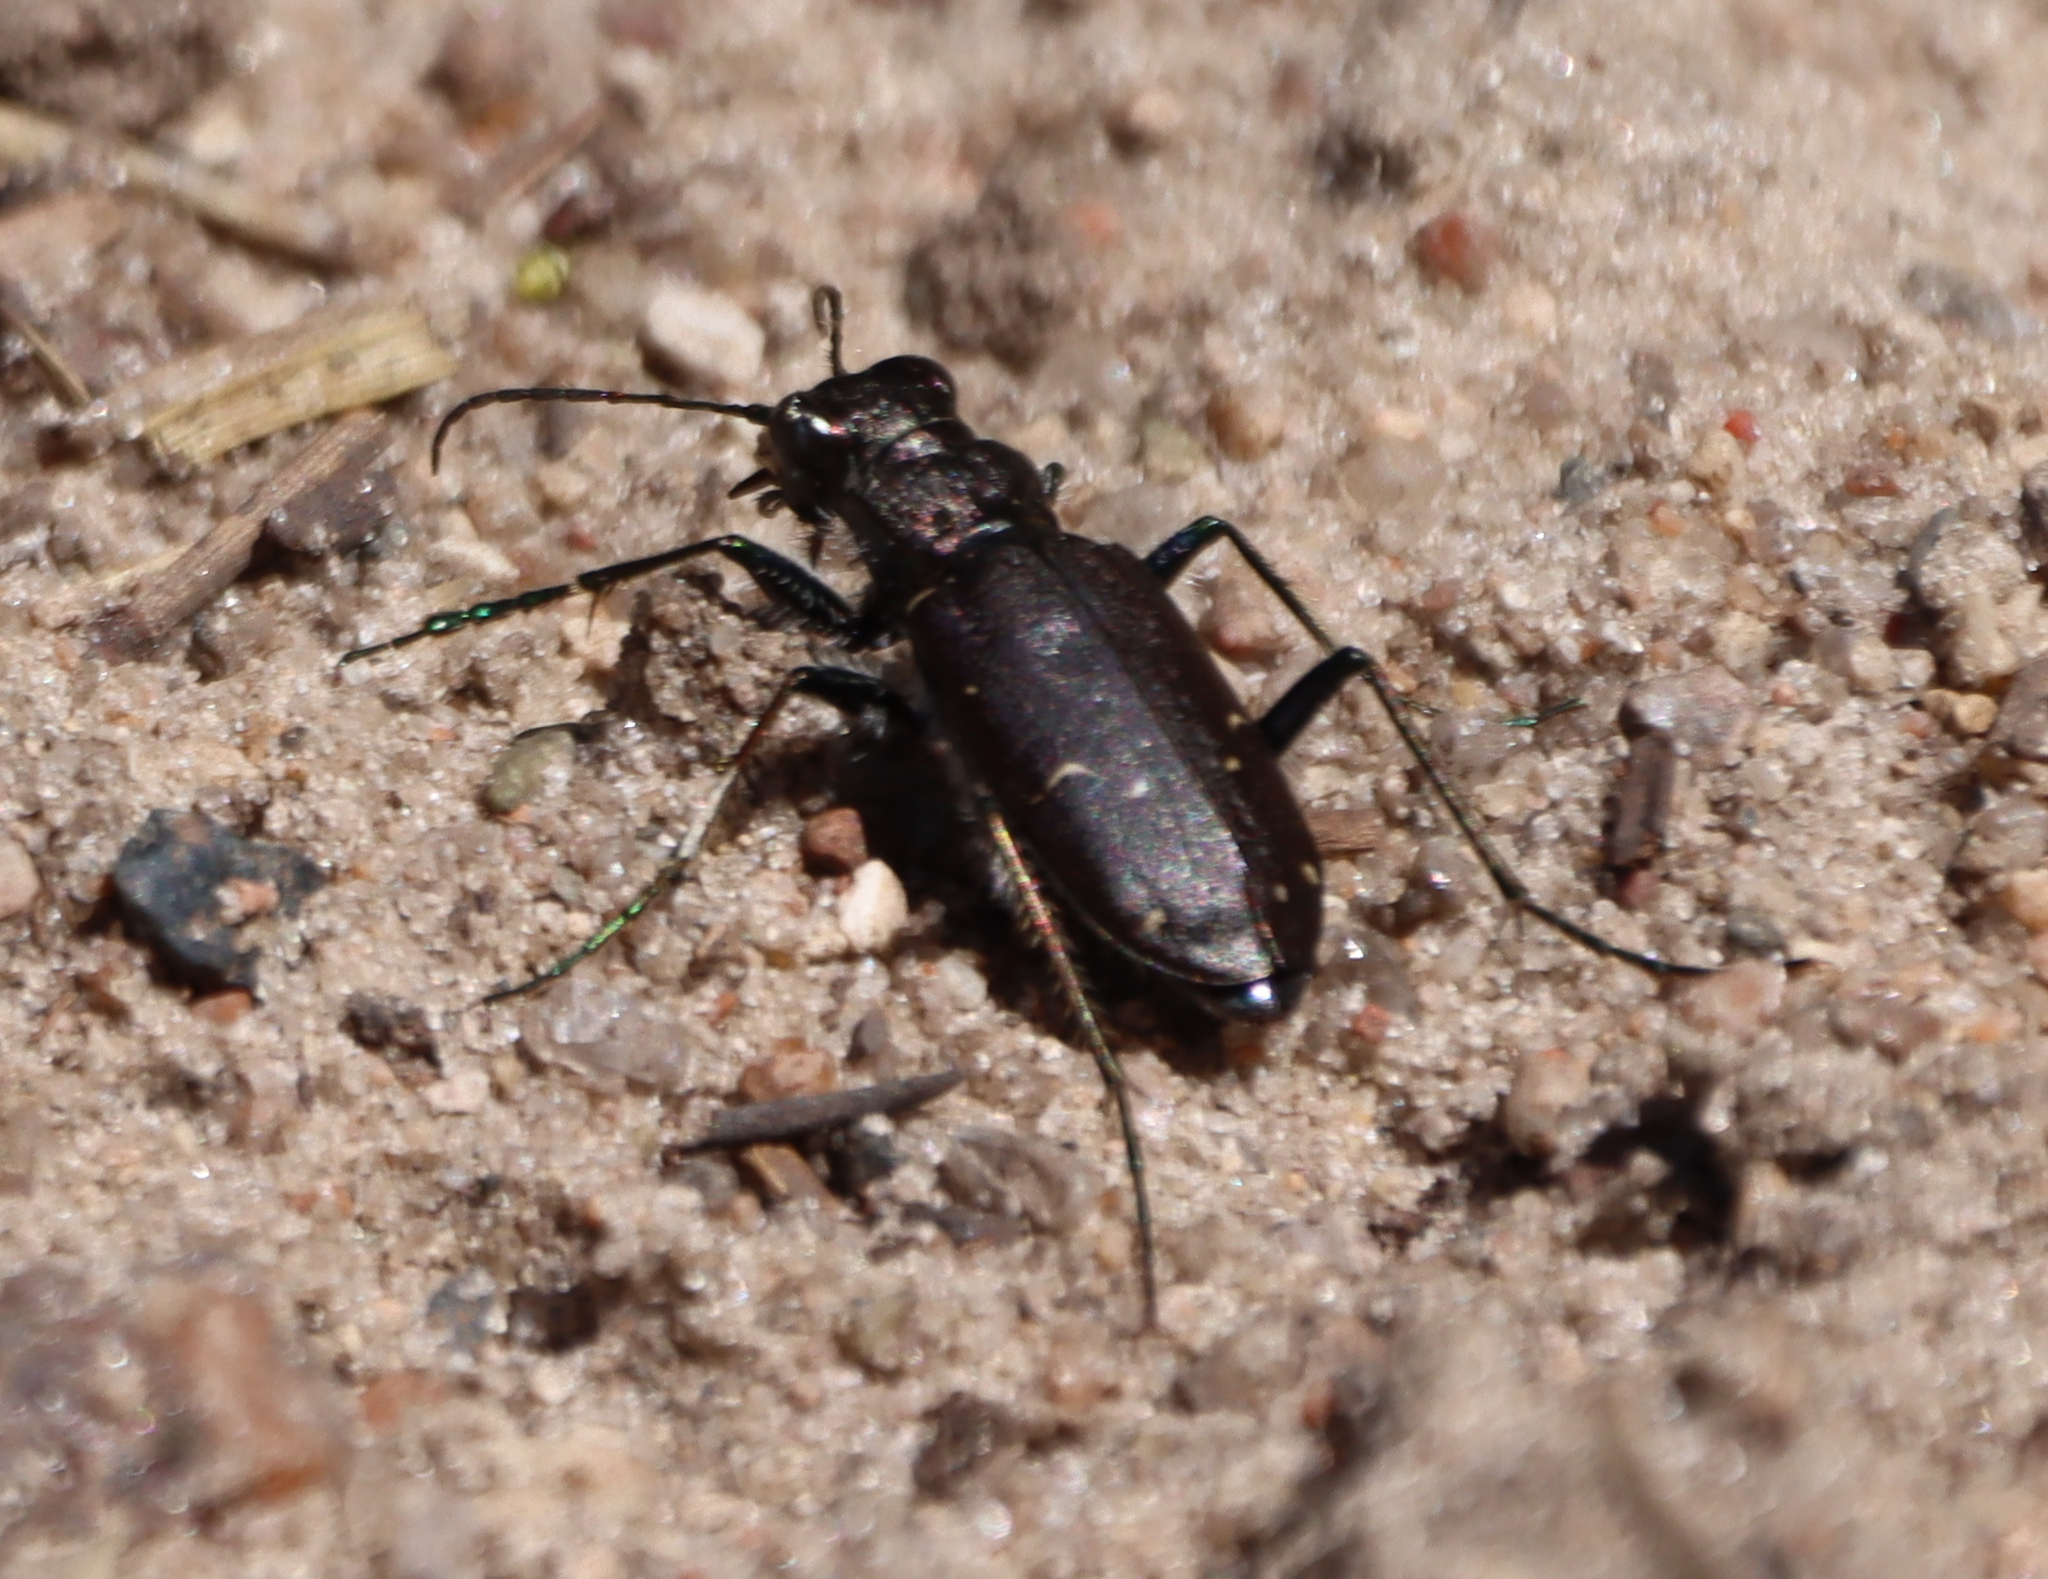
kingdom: Animalia
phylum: Arthropoda
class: Insecta
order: Coleoptera
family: Carabidae
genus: Cicindela
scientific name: Cicindela longilabris
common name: Boreal long-lipped tiger beetle
